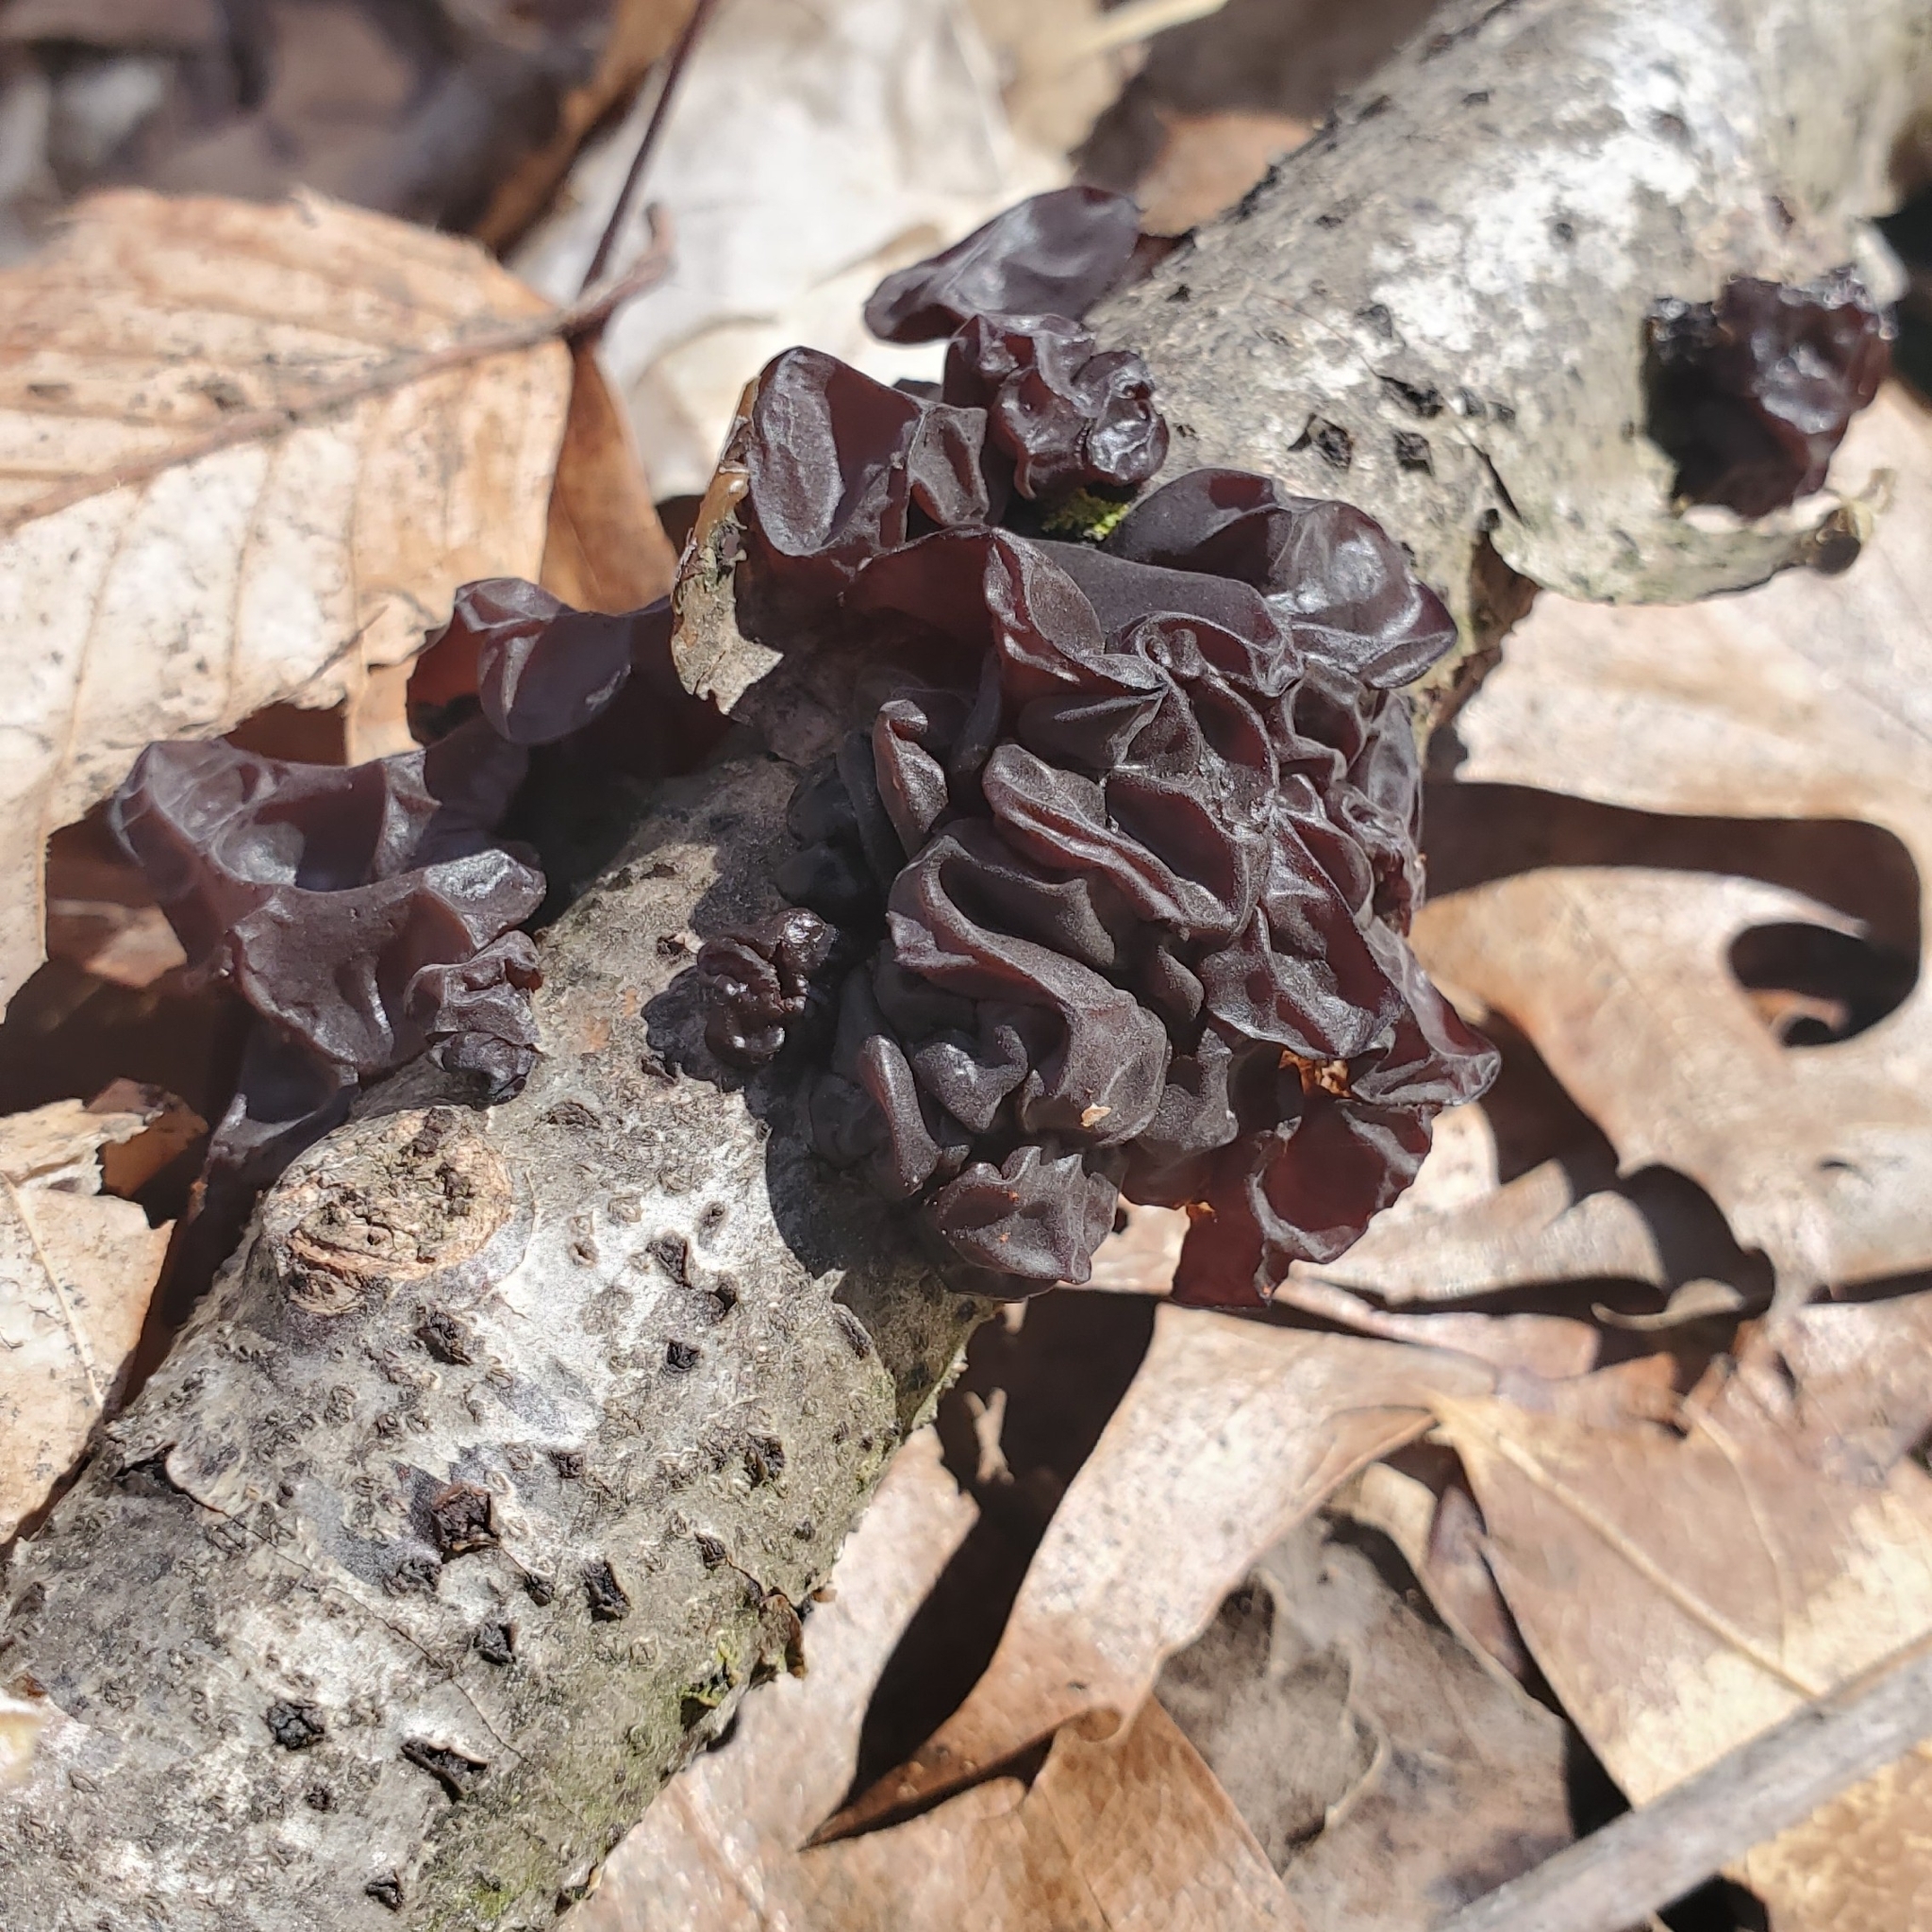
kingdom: Fungi
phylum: Basidiomycota
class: Agaricomycetes
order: Auriculariales
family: Auriculariaceae
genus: Exidia
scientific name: Exidia
